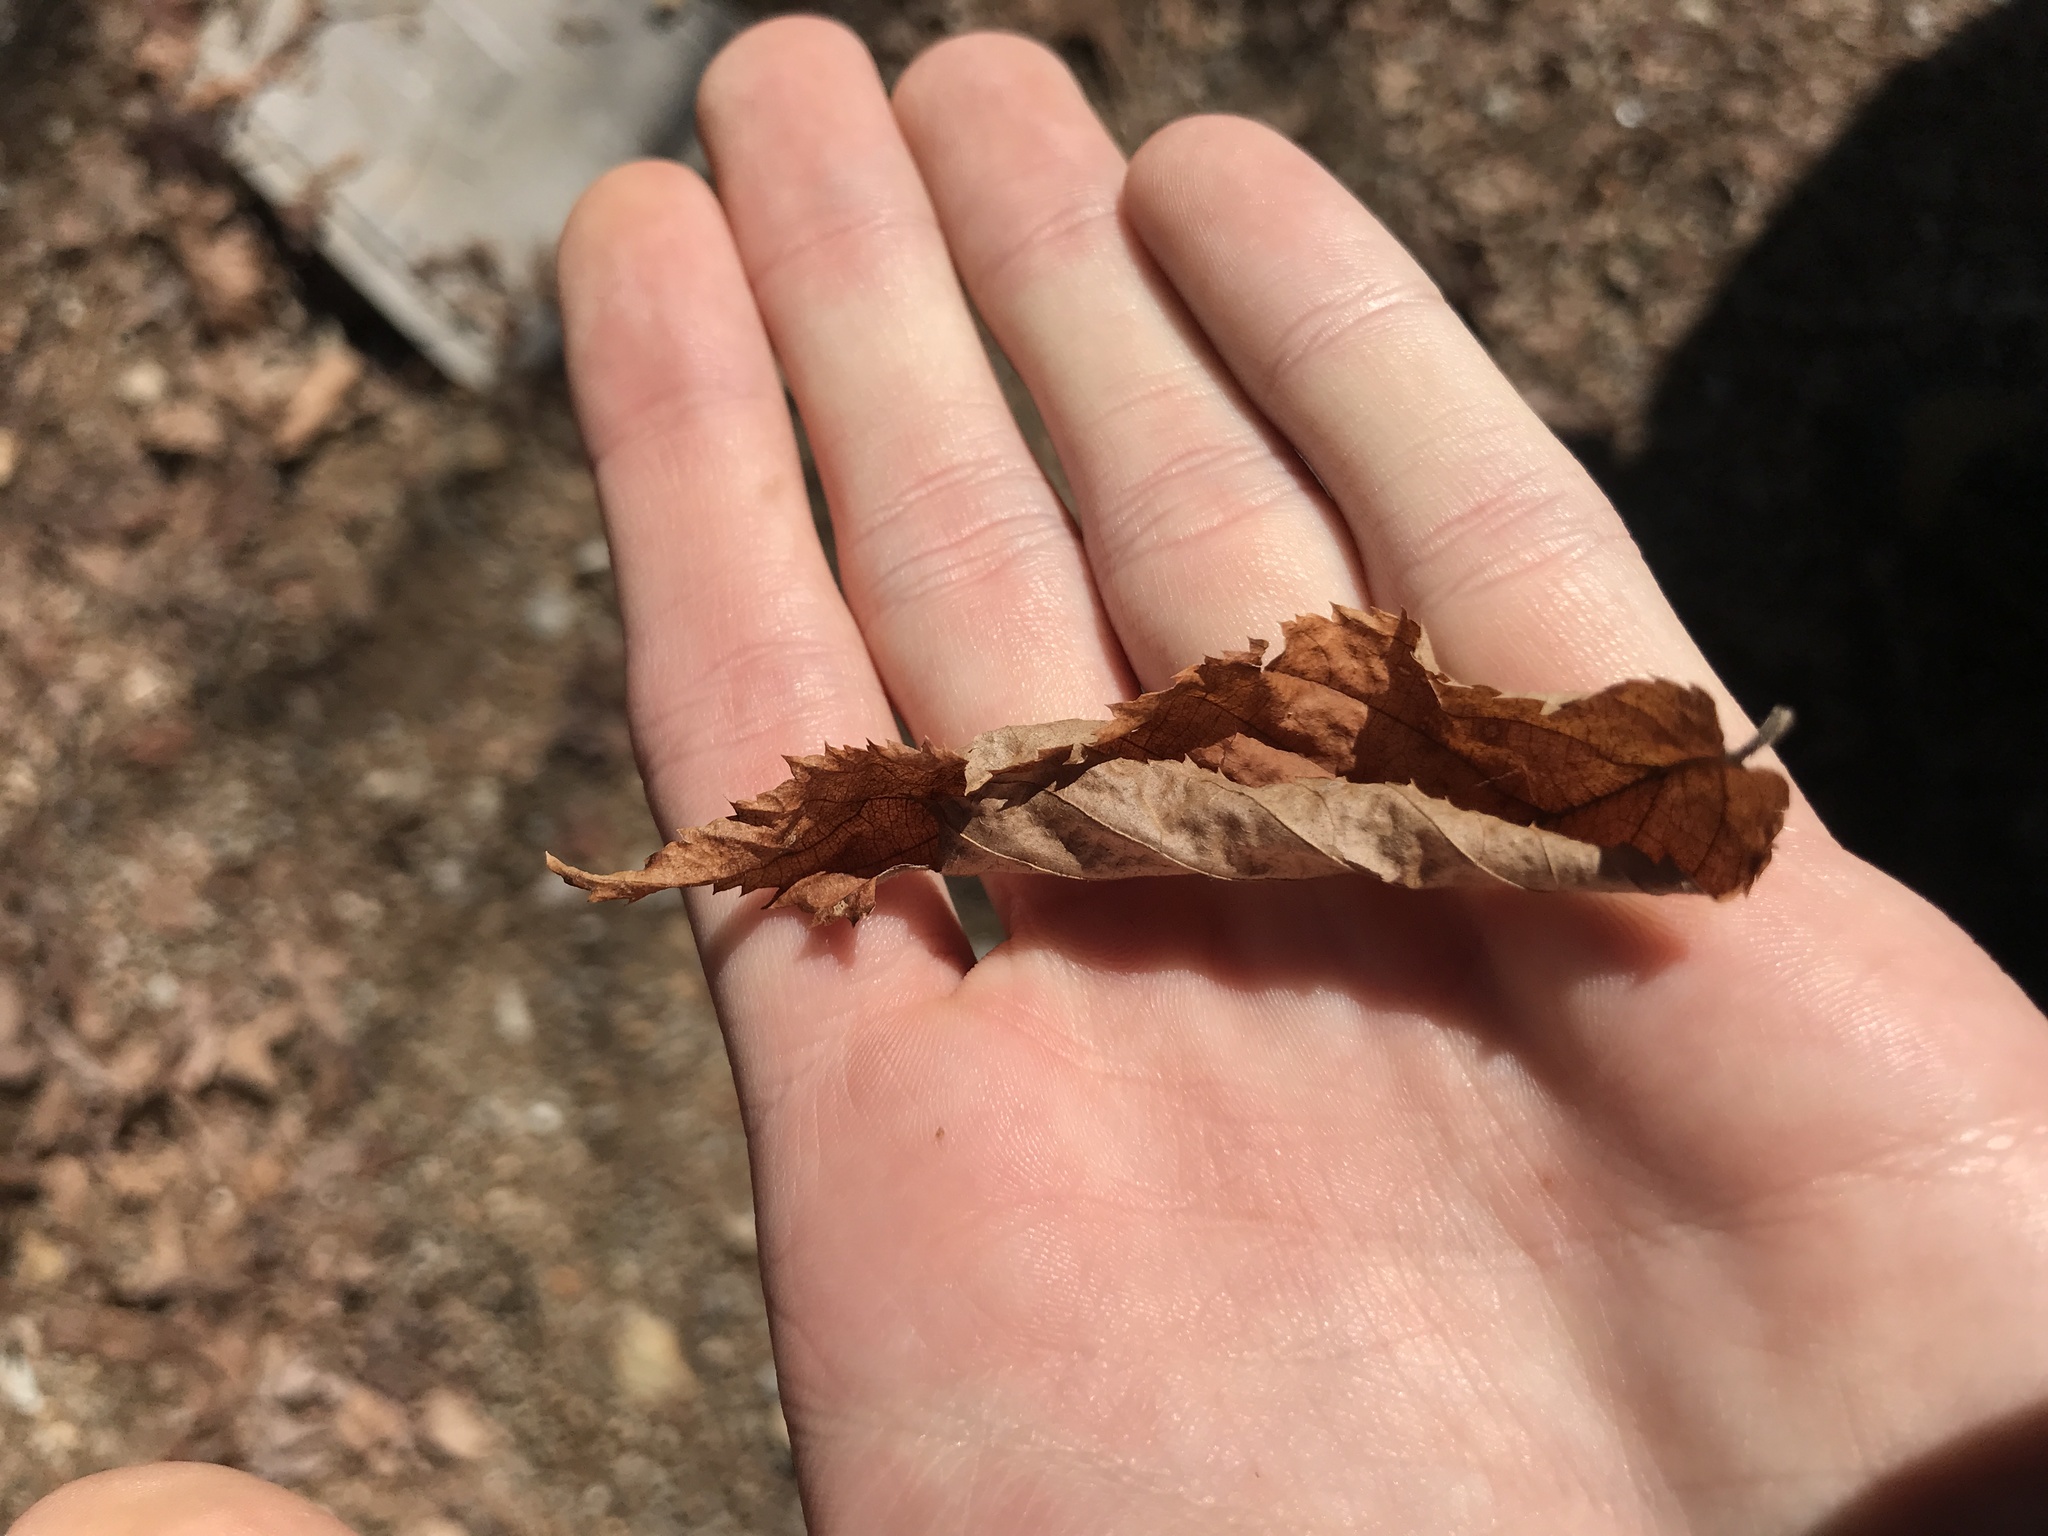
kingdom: Plantae
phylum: Tracheophyta
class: Magnoliopsida
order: Fagales
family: Betulaceae
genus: Ostrya
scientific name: Ostrya virginiana
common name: Ironwood
